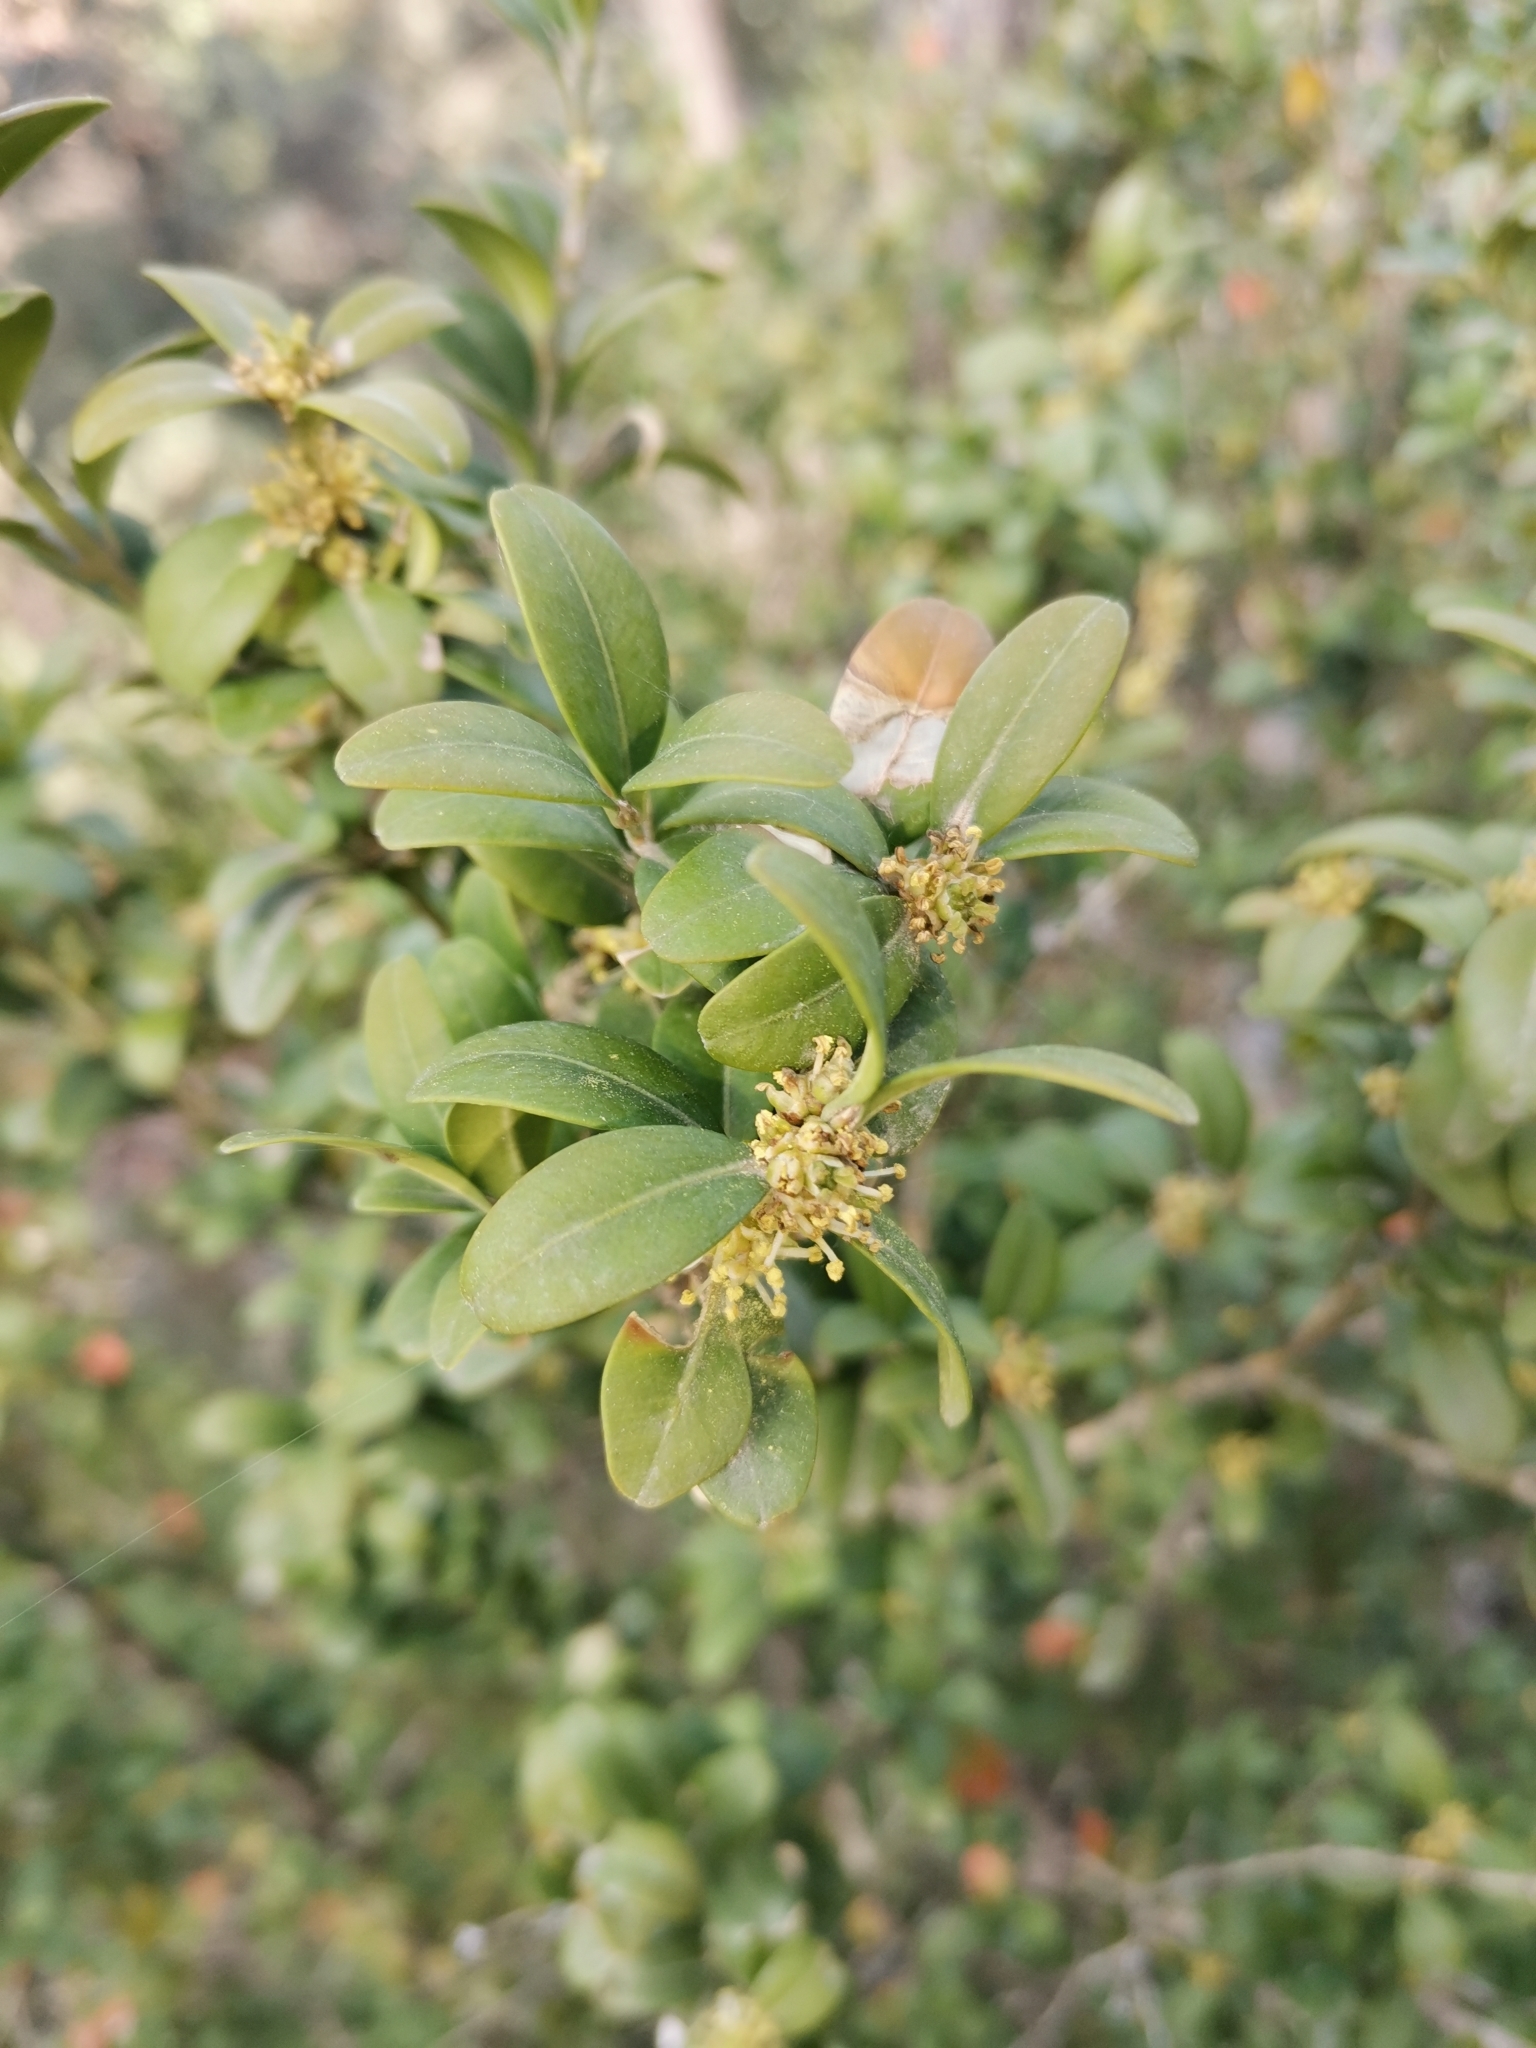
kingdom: Plantae
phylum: Tracheophyta
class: Magnoliopsida
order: Buxales
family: Buxaceae
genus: Buxus
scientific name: Buxus sempervirens
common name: Box
